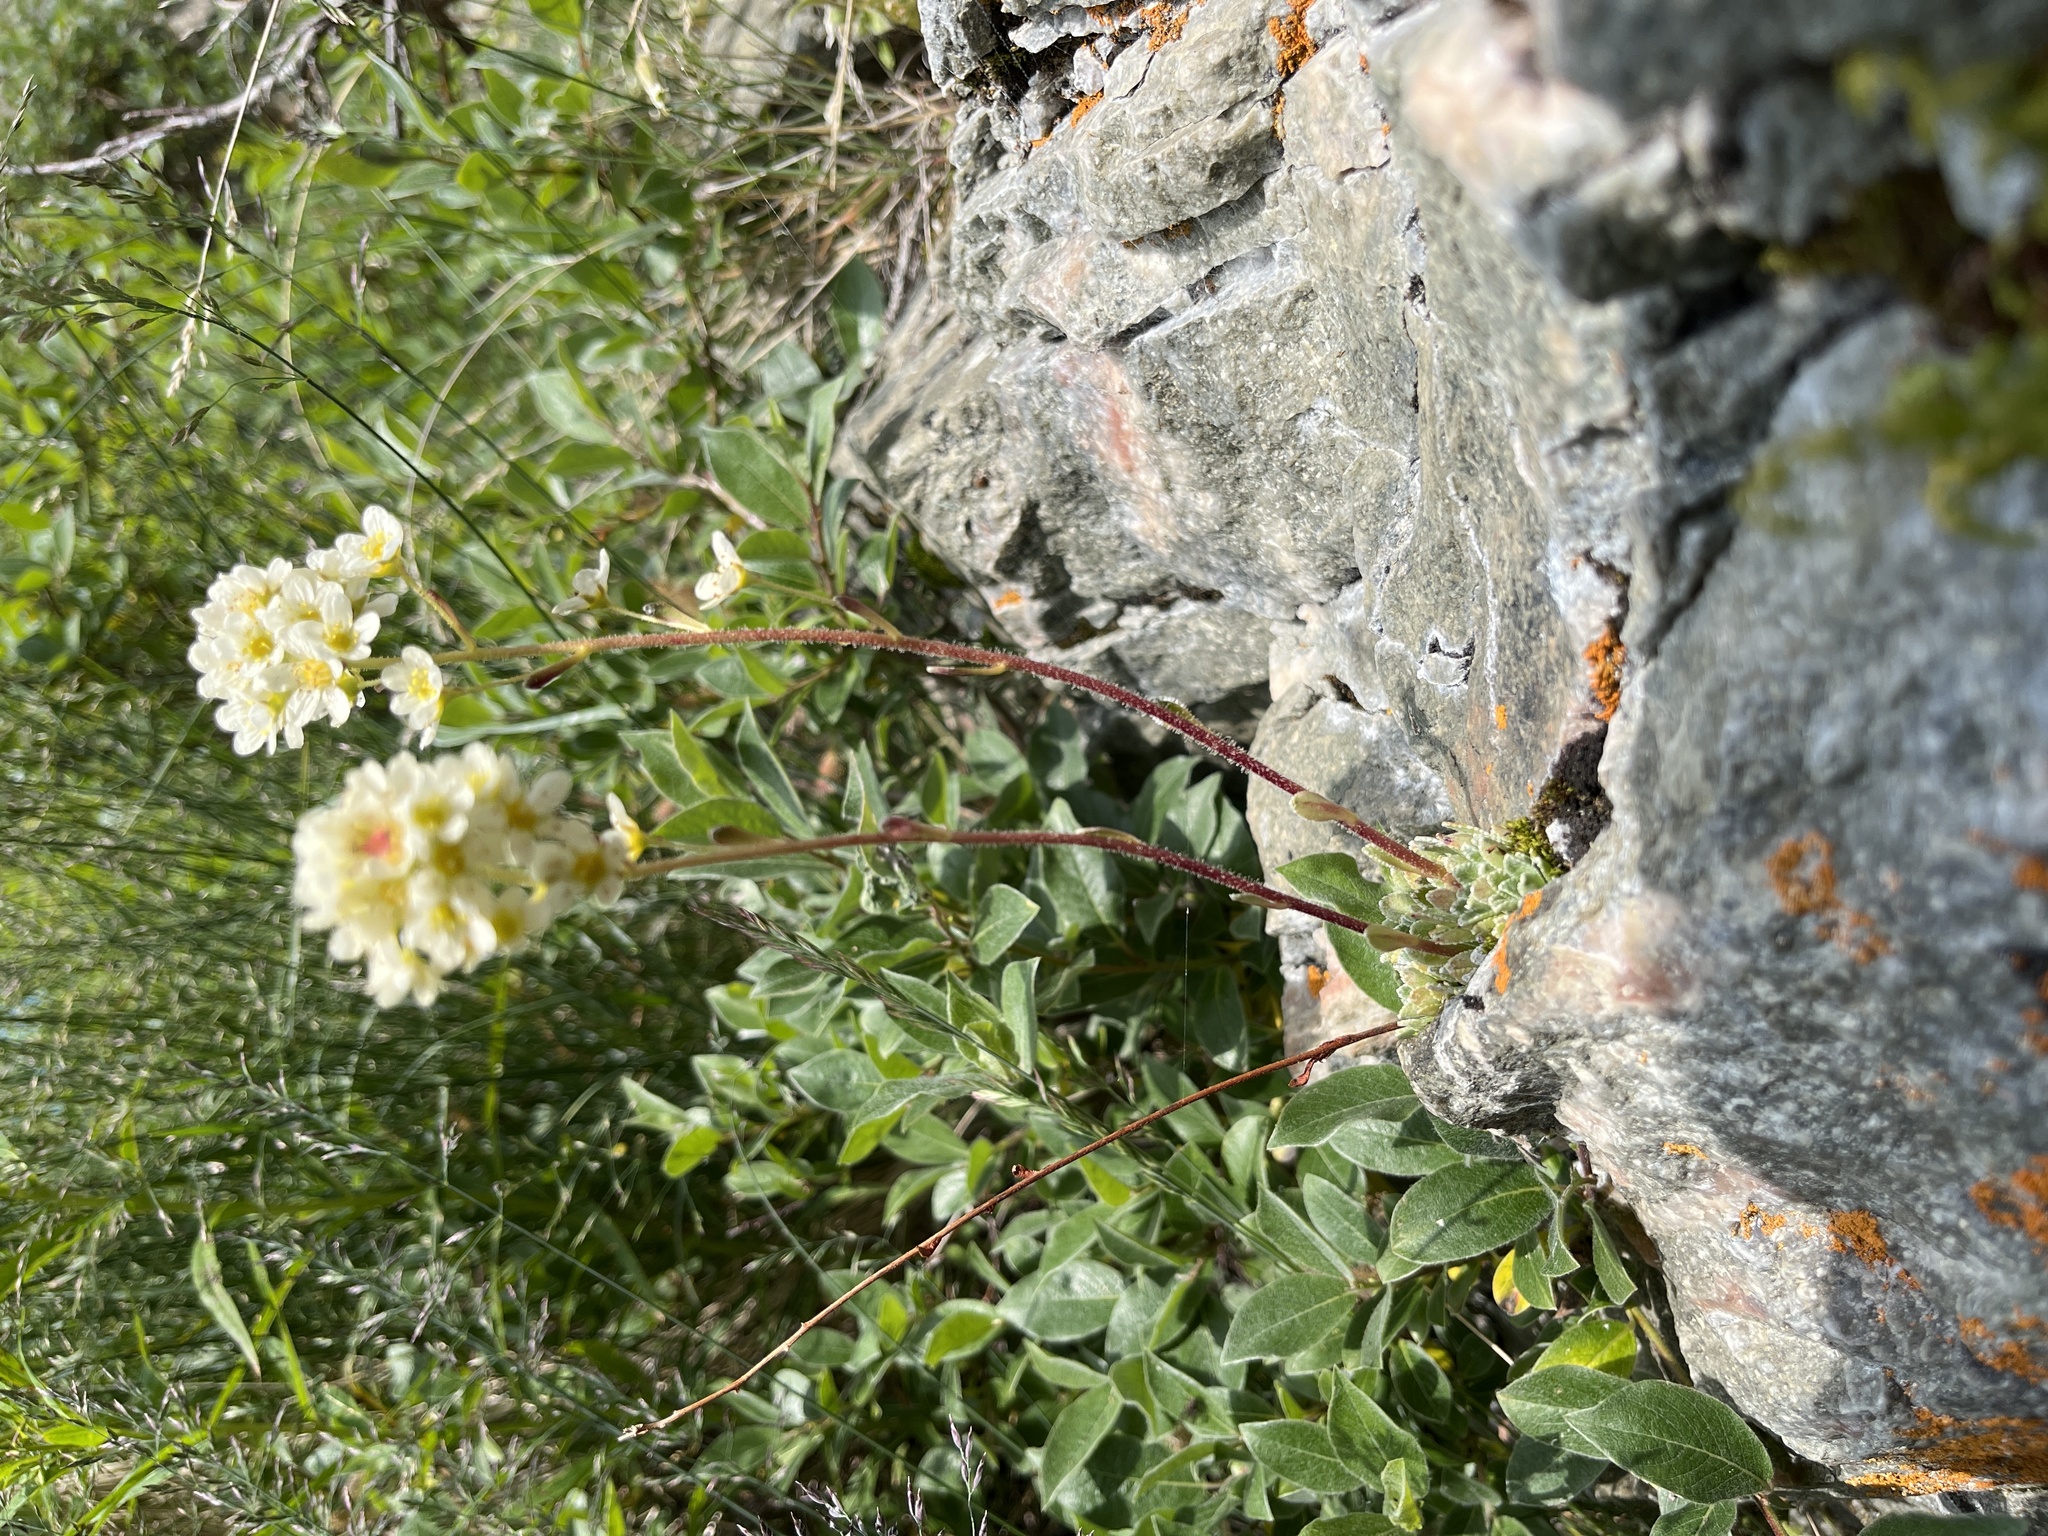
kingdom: Plantae
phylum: Tracheophyta
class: Magnoliopsida
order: Saxifragales
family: Saxifragaceae
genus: Saxifraga
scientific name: Saxifraga paniculata
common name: Livelong saxifrage
